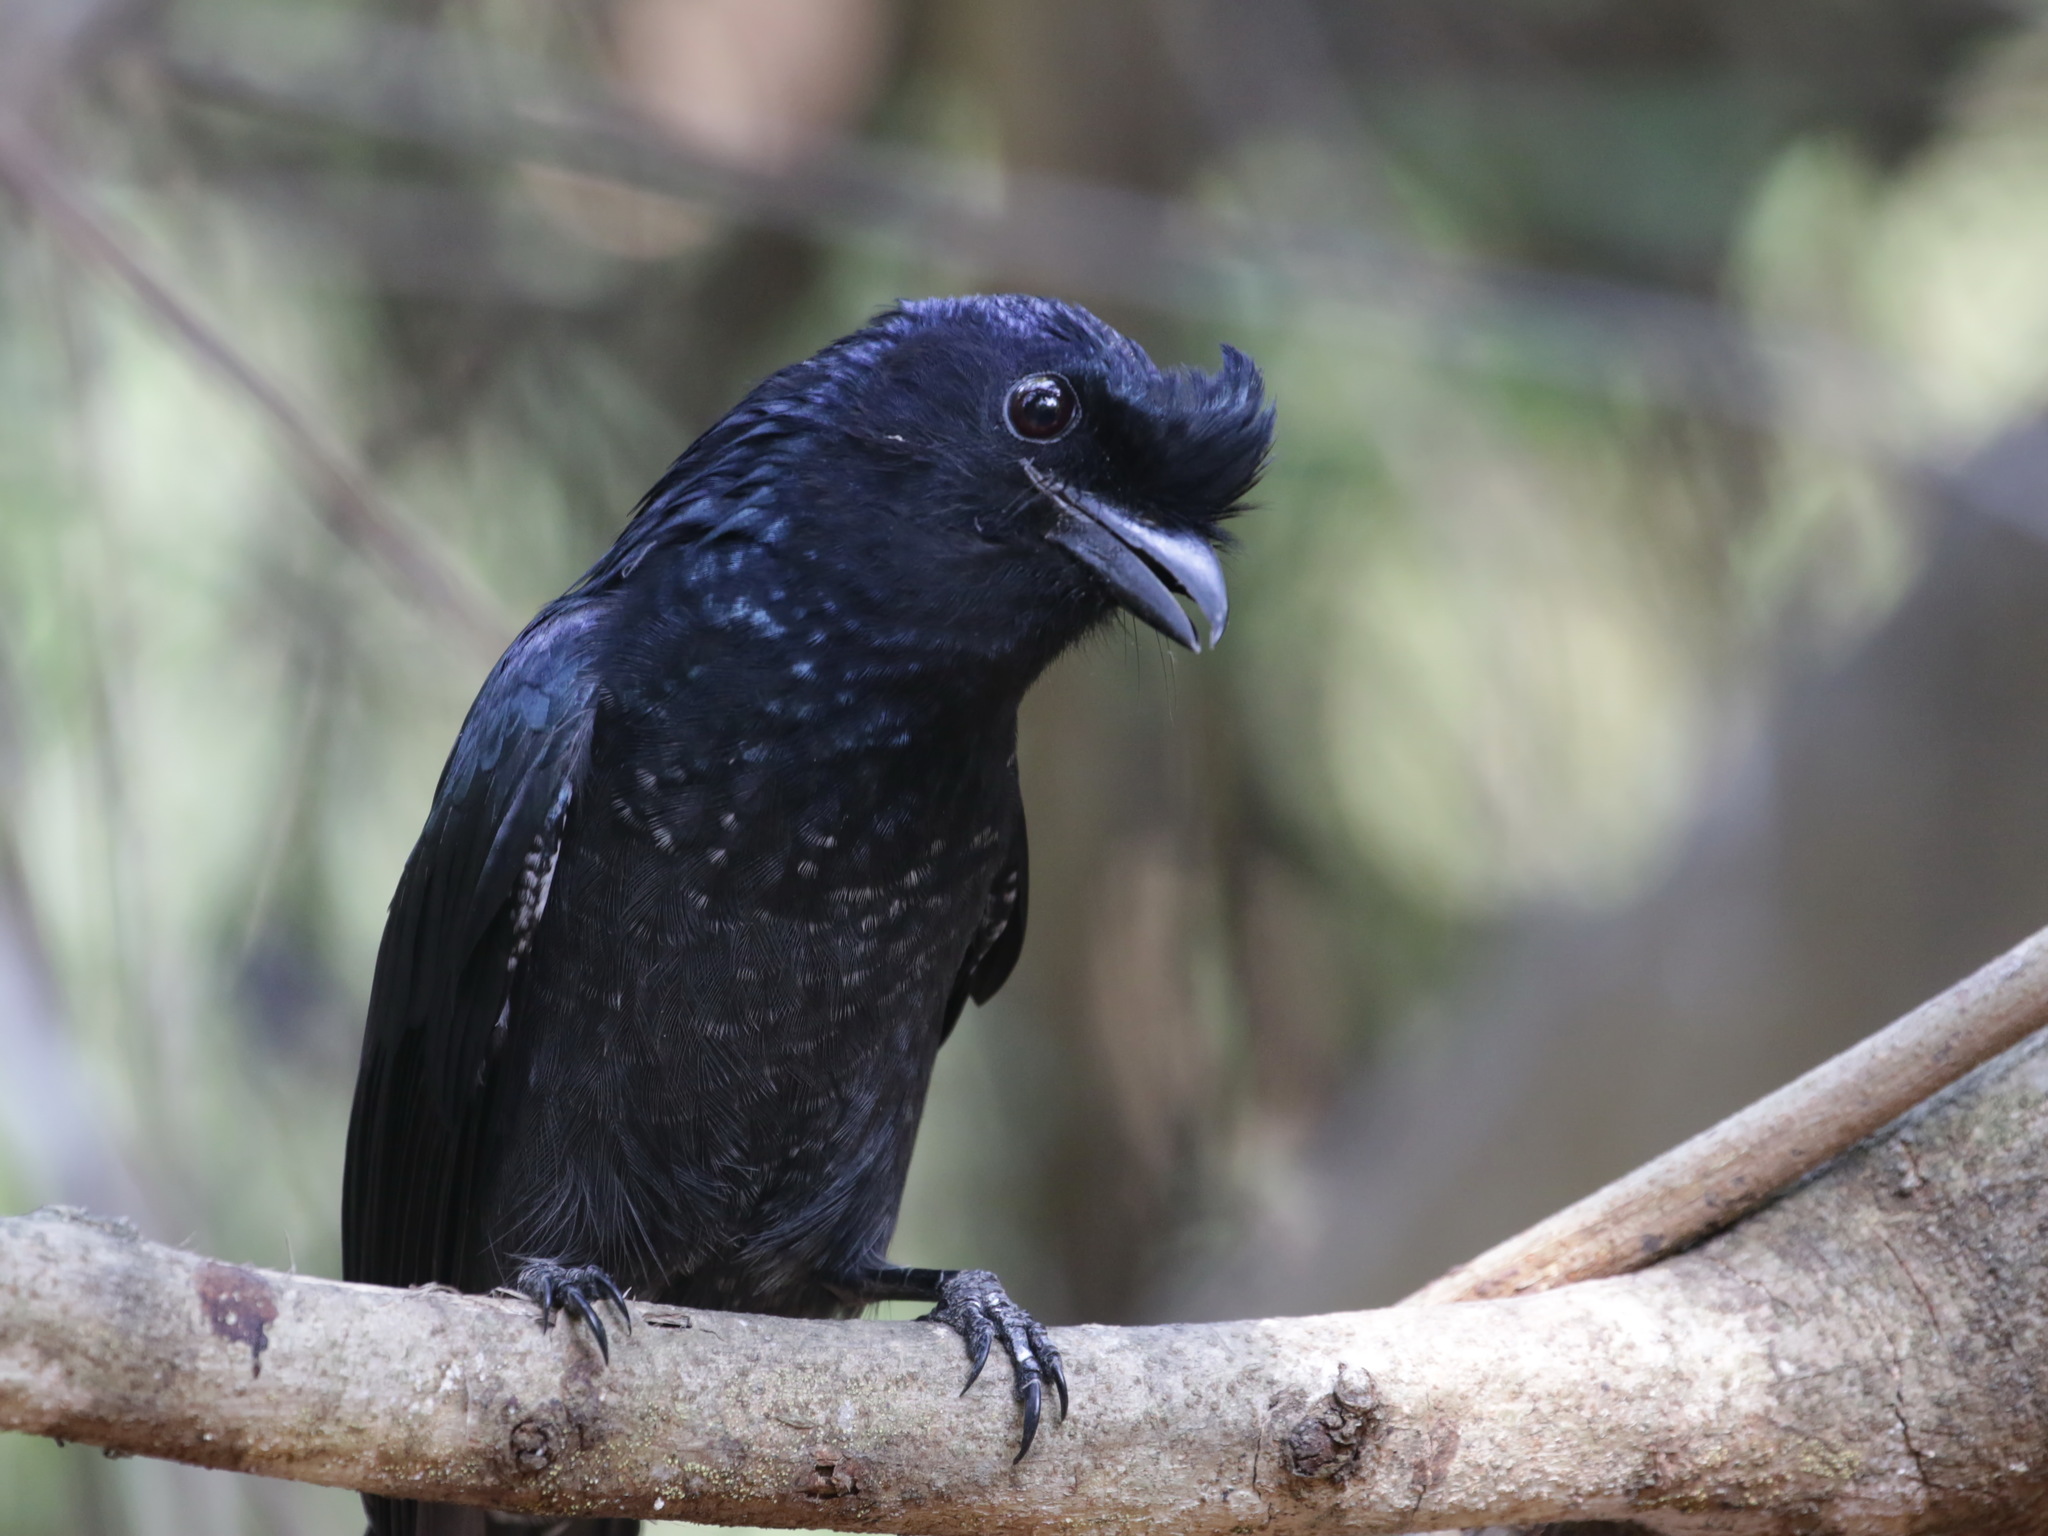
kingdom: Animalia
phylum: Chordata
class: Aves
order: Passeriformes
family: Dicruridae
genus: Dicrurus
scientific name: Dicrurus paradiseus
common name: Greater racket-tailed drongo
